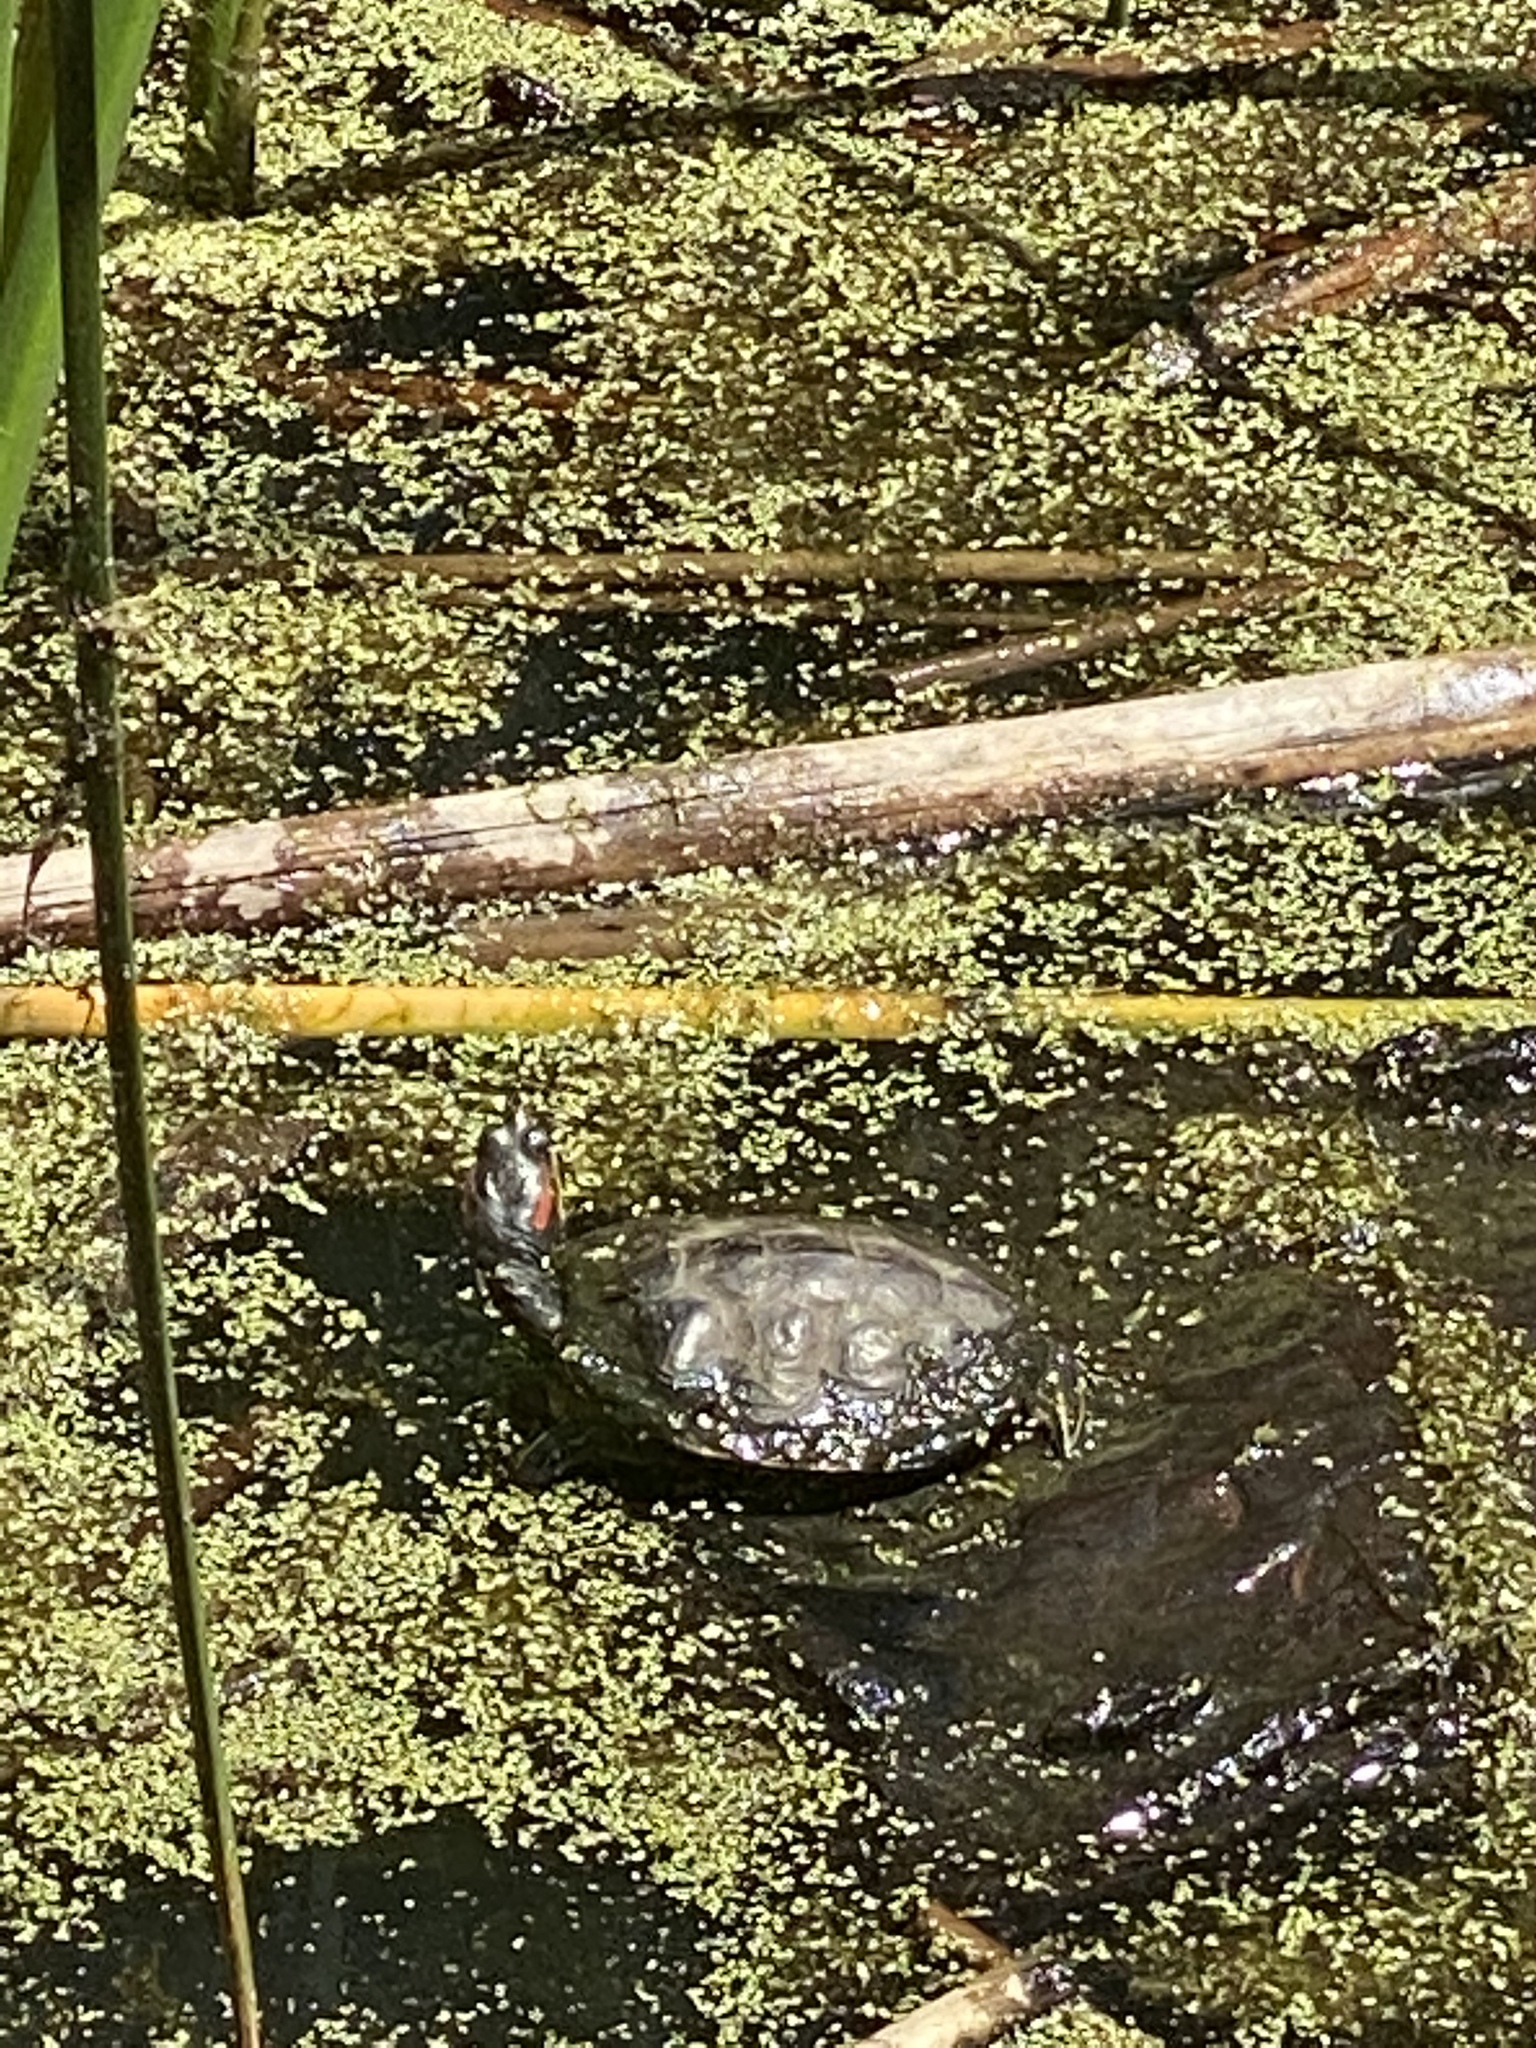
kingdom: Animalia
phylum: Chordata
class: Testudines
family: Emydidae
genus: Trachemys
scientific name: Trachemys scripta
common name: Slider
